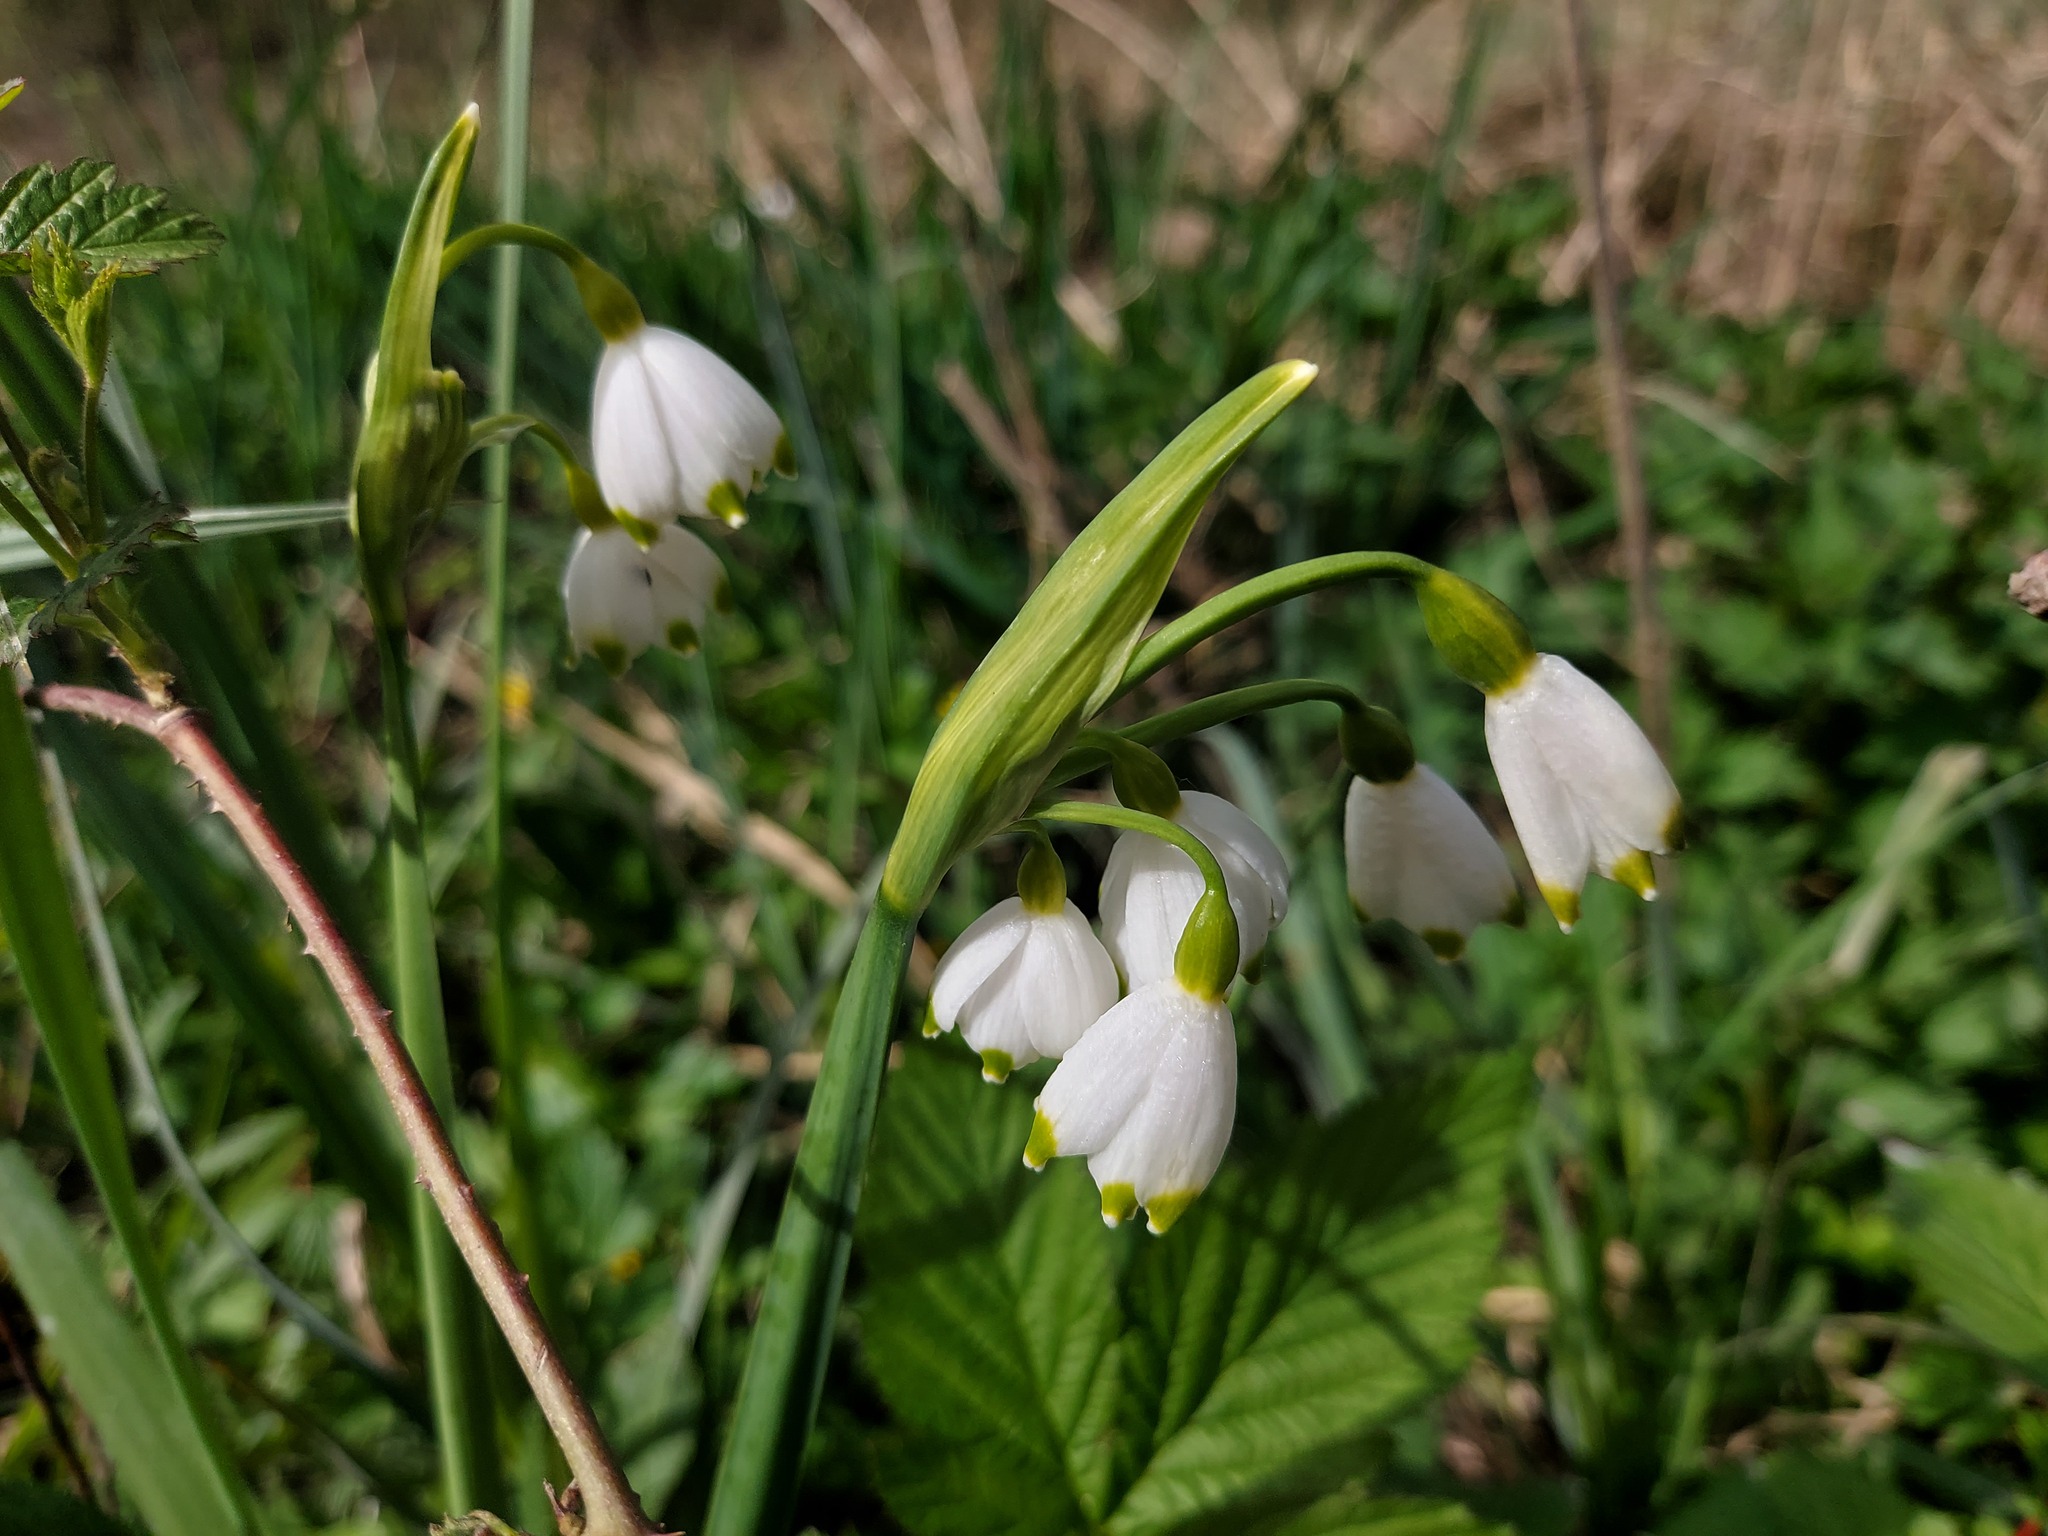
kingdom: Plantae
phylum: Tracheophyta
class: Liliopsida
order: Asparagales
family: Amaryllidaceae
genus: Leucojum
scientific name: Leucojum aestivum
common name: Summer snowflake
